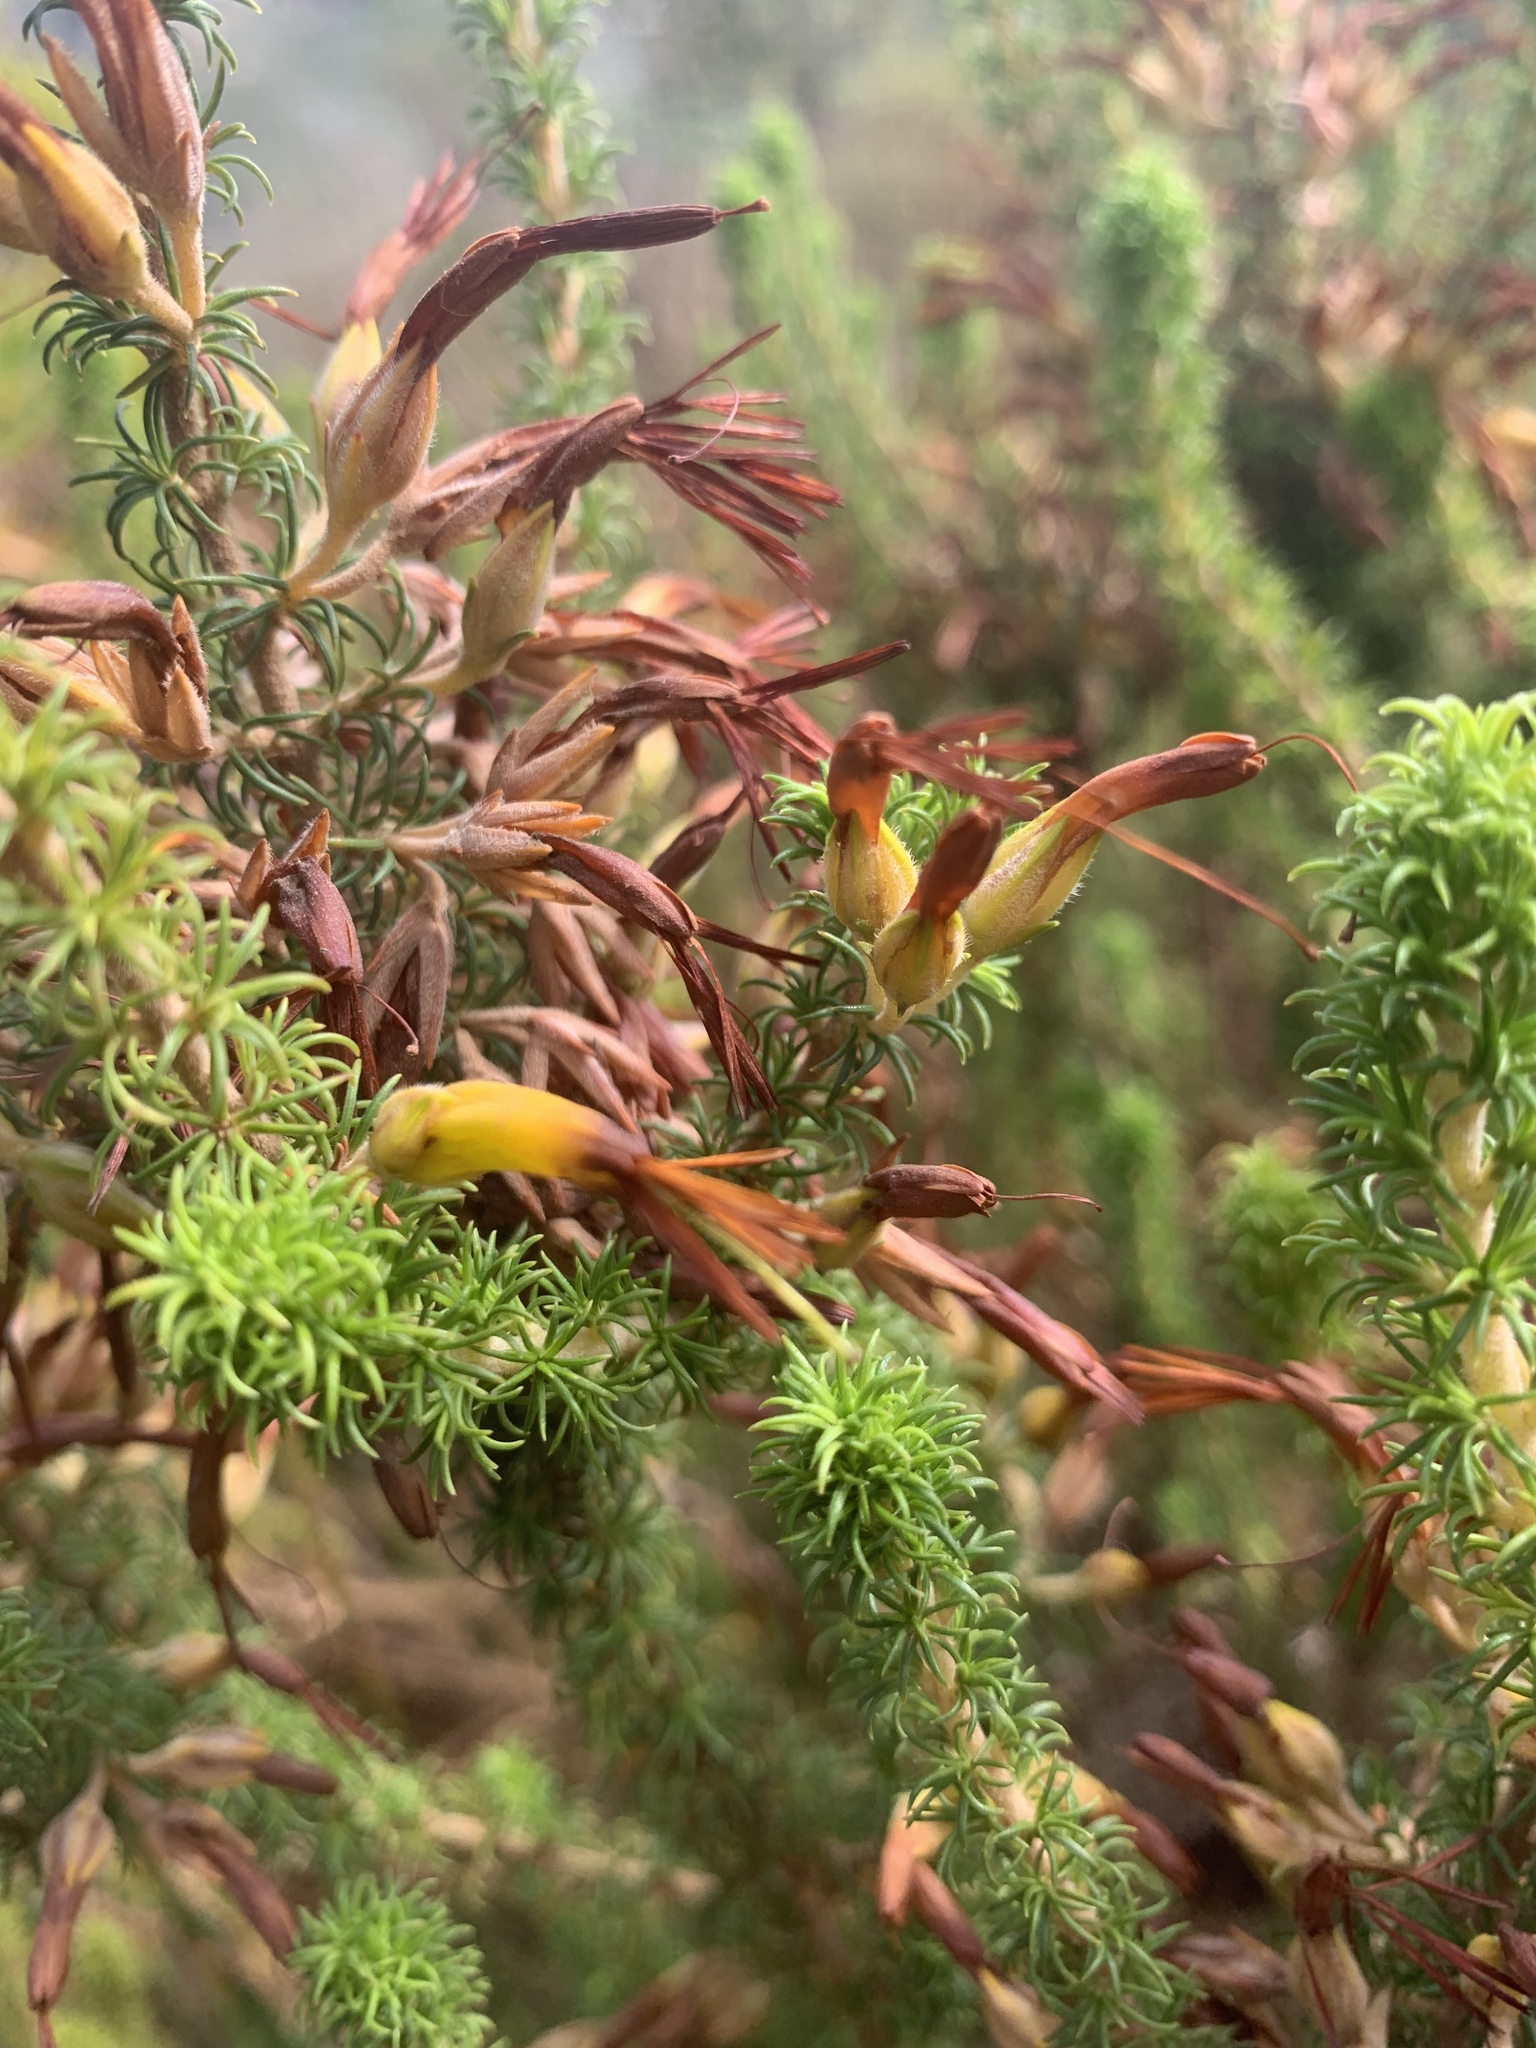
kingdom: Plantae
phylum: Tracheophyta
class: Magnoliopsida
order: Ericales
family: Ericaceae
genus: Erica
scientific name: Erica coccinea
